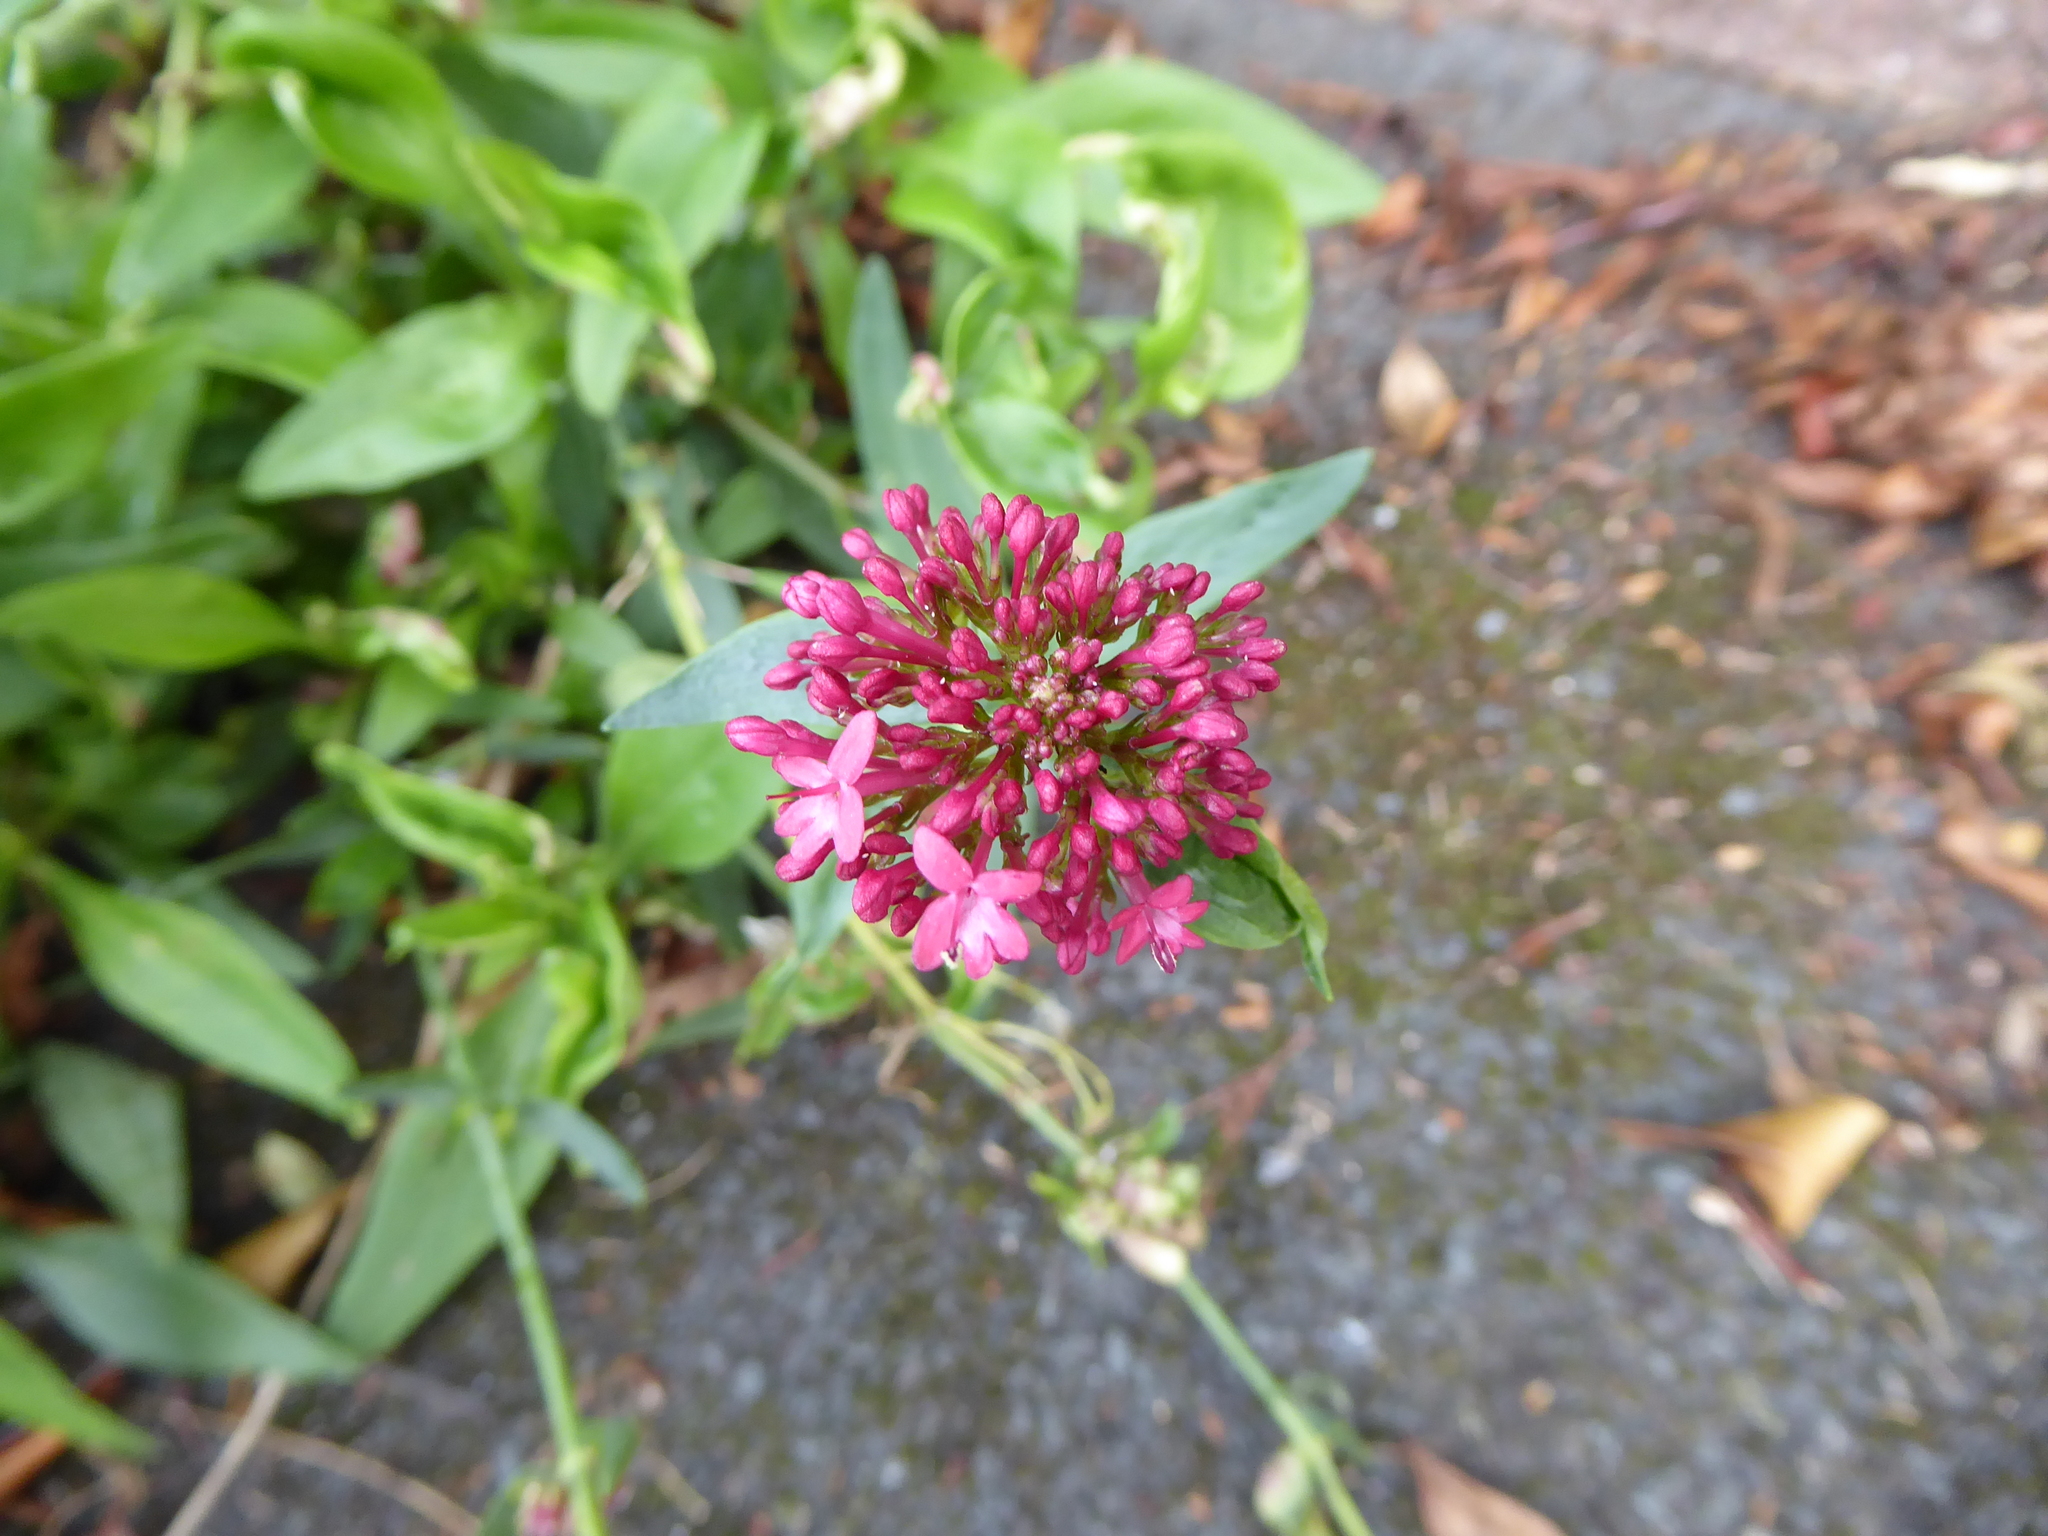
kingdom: Plantae
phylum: Tracheophyta
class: Magnoliopsida
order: Dipsacales
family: Caprifoliaceae
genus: Centranthus
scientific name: Centranthus ruber
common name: Red valerian
